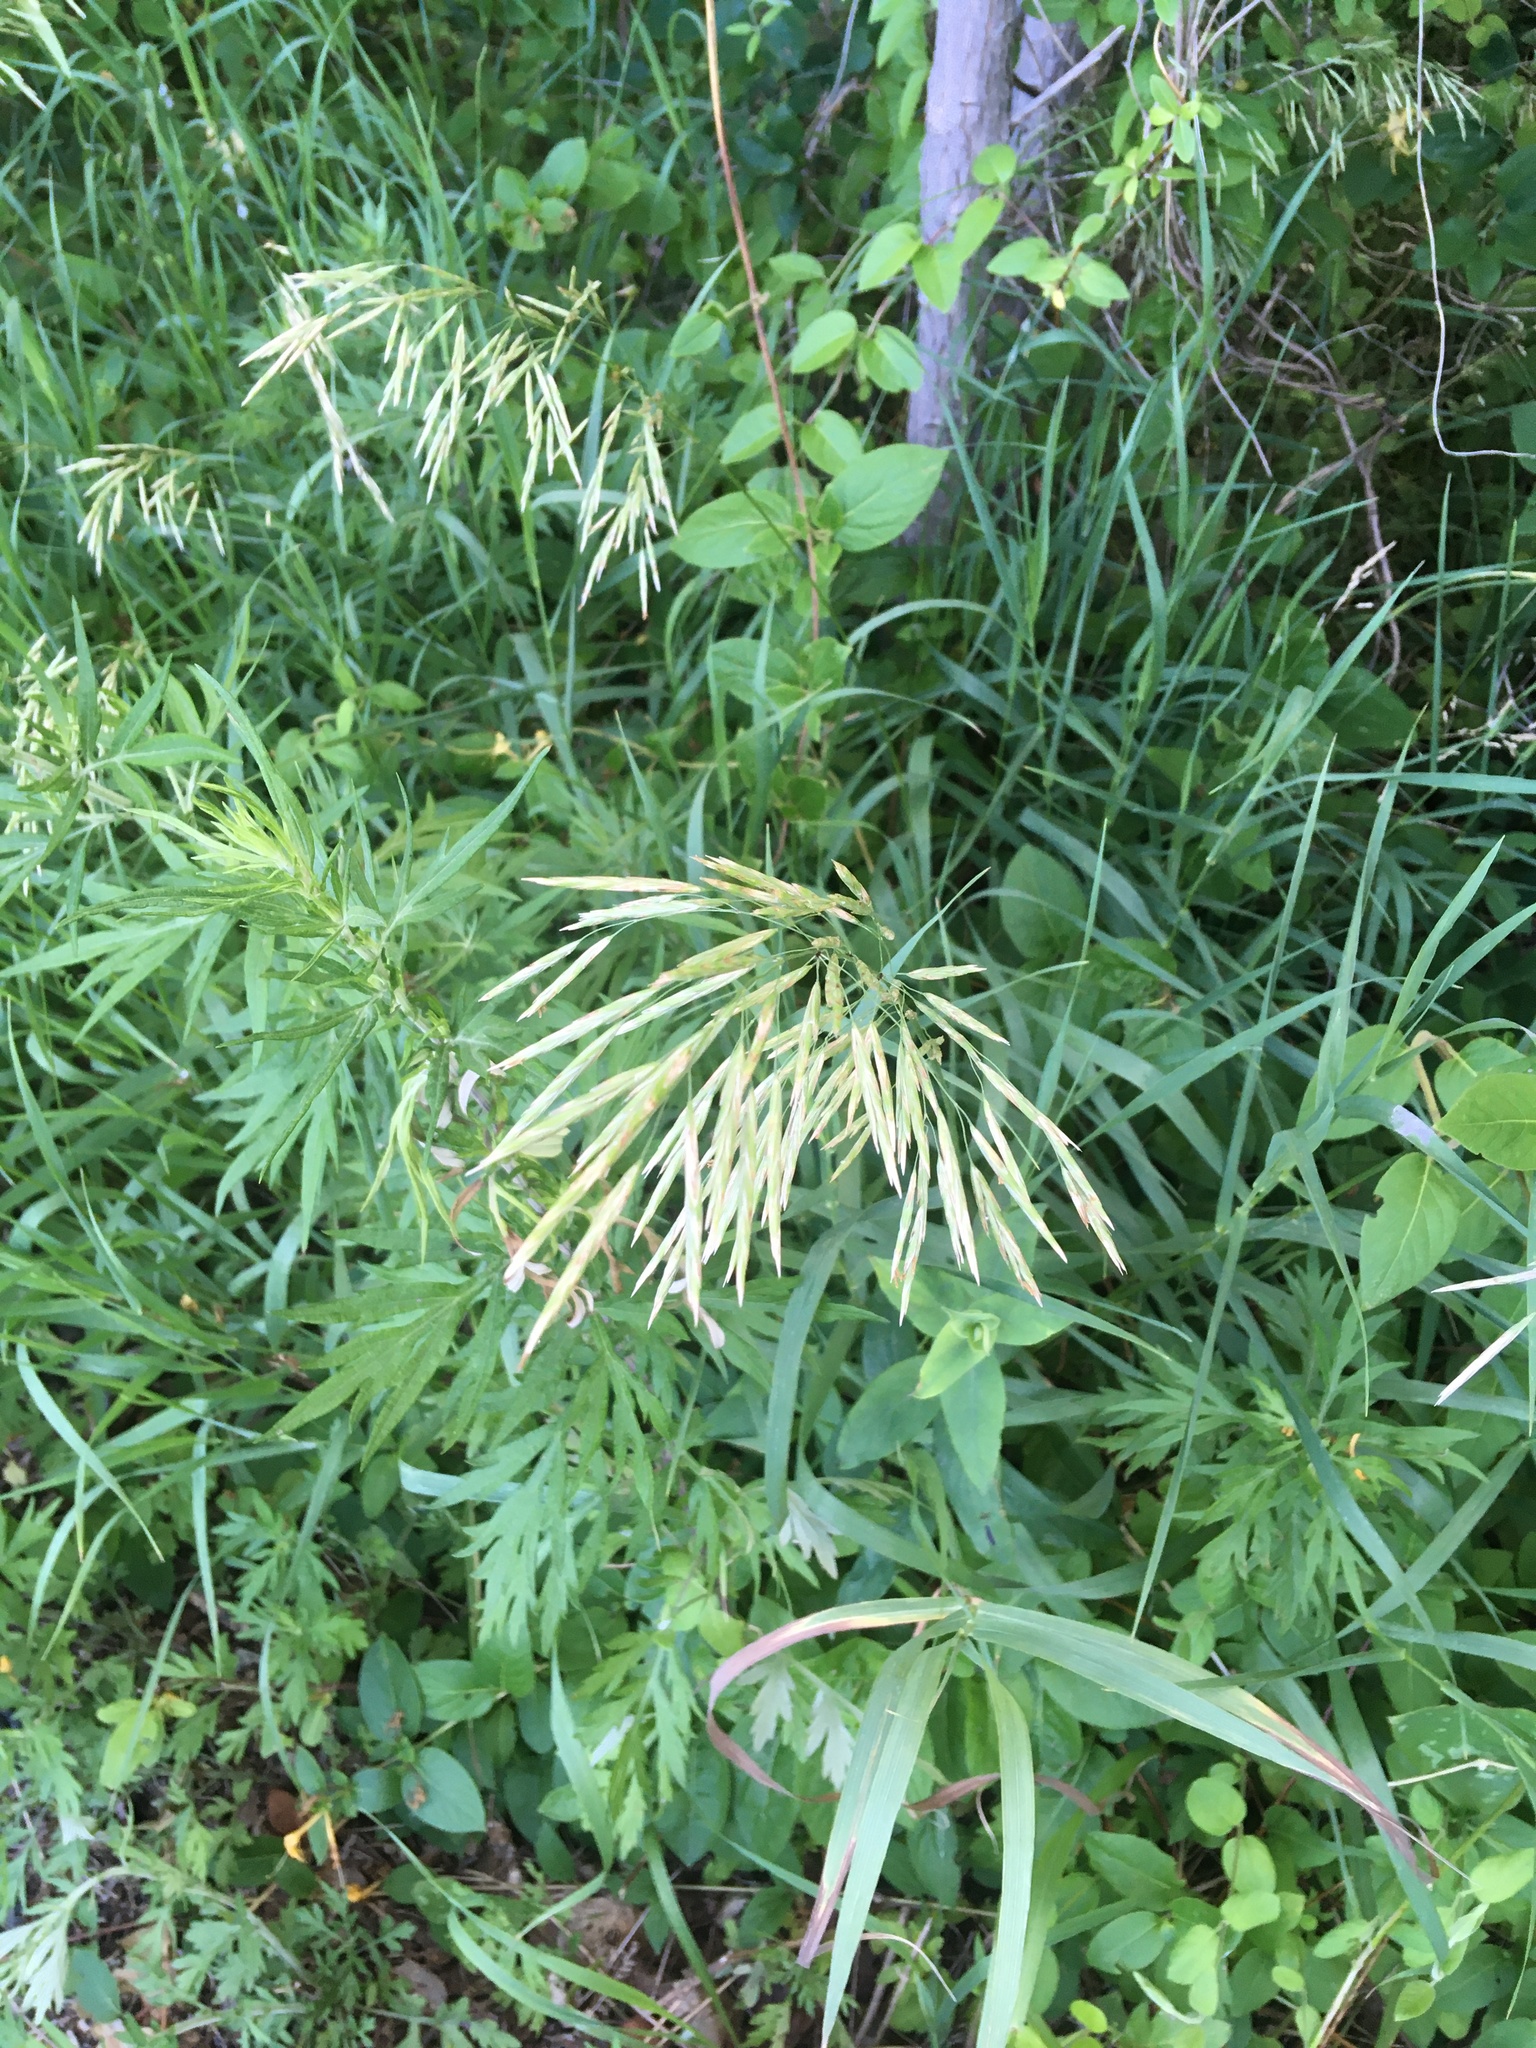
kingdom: Plantae
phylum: Tracheophyta
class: Liliopsida
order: Poales
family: Poaceae
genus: Bromus
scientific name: Bromus inermis
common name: Smooth brome
